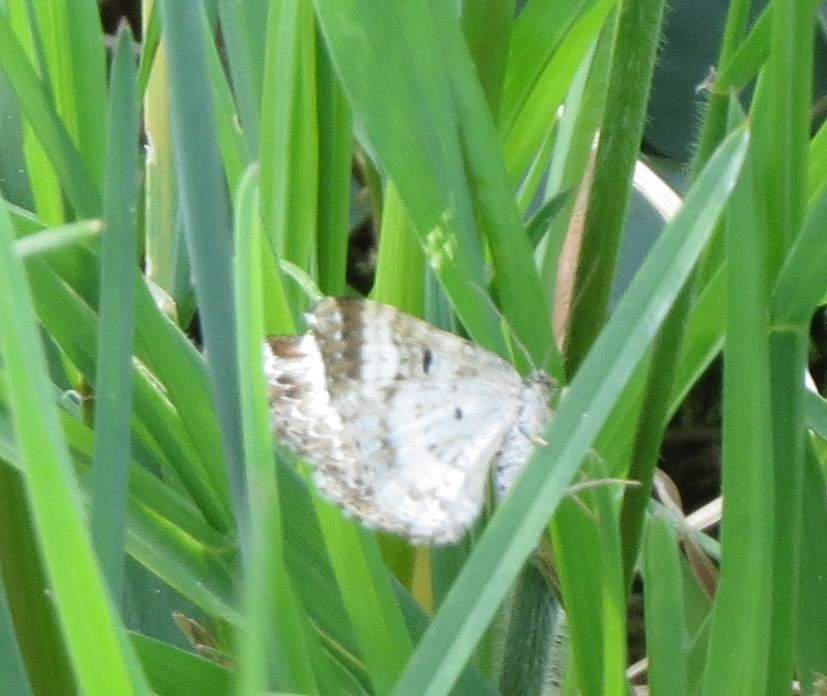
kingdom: Animalia
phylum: Arthropoda
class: Insecta
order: Lepidoptera
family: Geometridae
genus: Epirrhoe
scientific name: Epirrhoe alternata
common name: Common carpet
